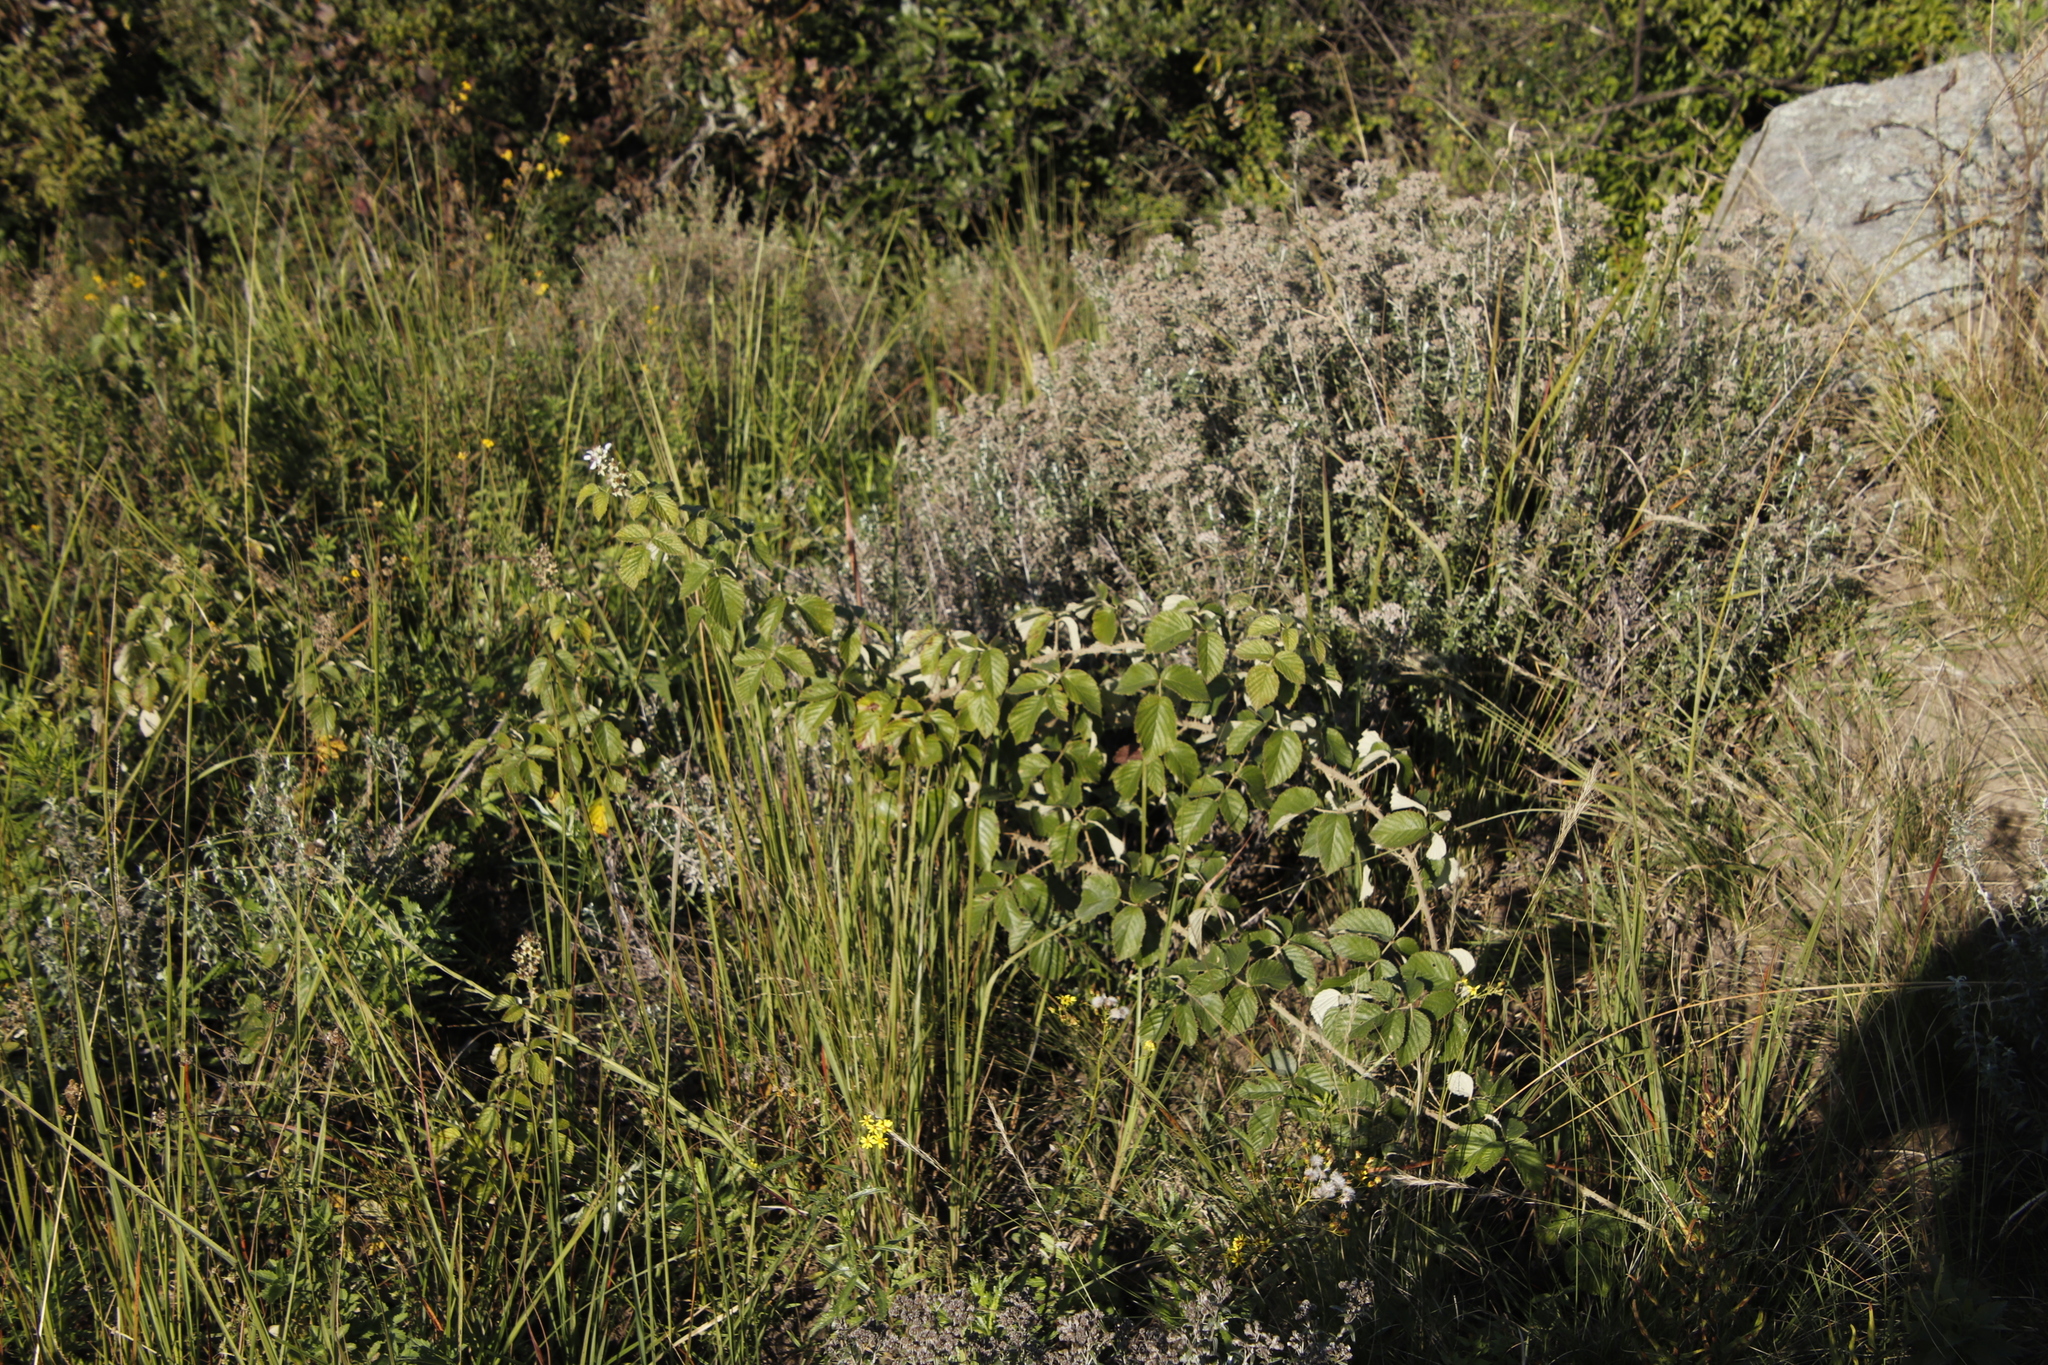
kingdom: Plantae
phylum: Tracheophyta
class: Magnoliopsida
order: Rosales
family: Rosaceae
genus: Rubus
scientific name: Rubus rigidus
